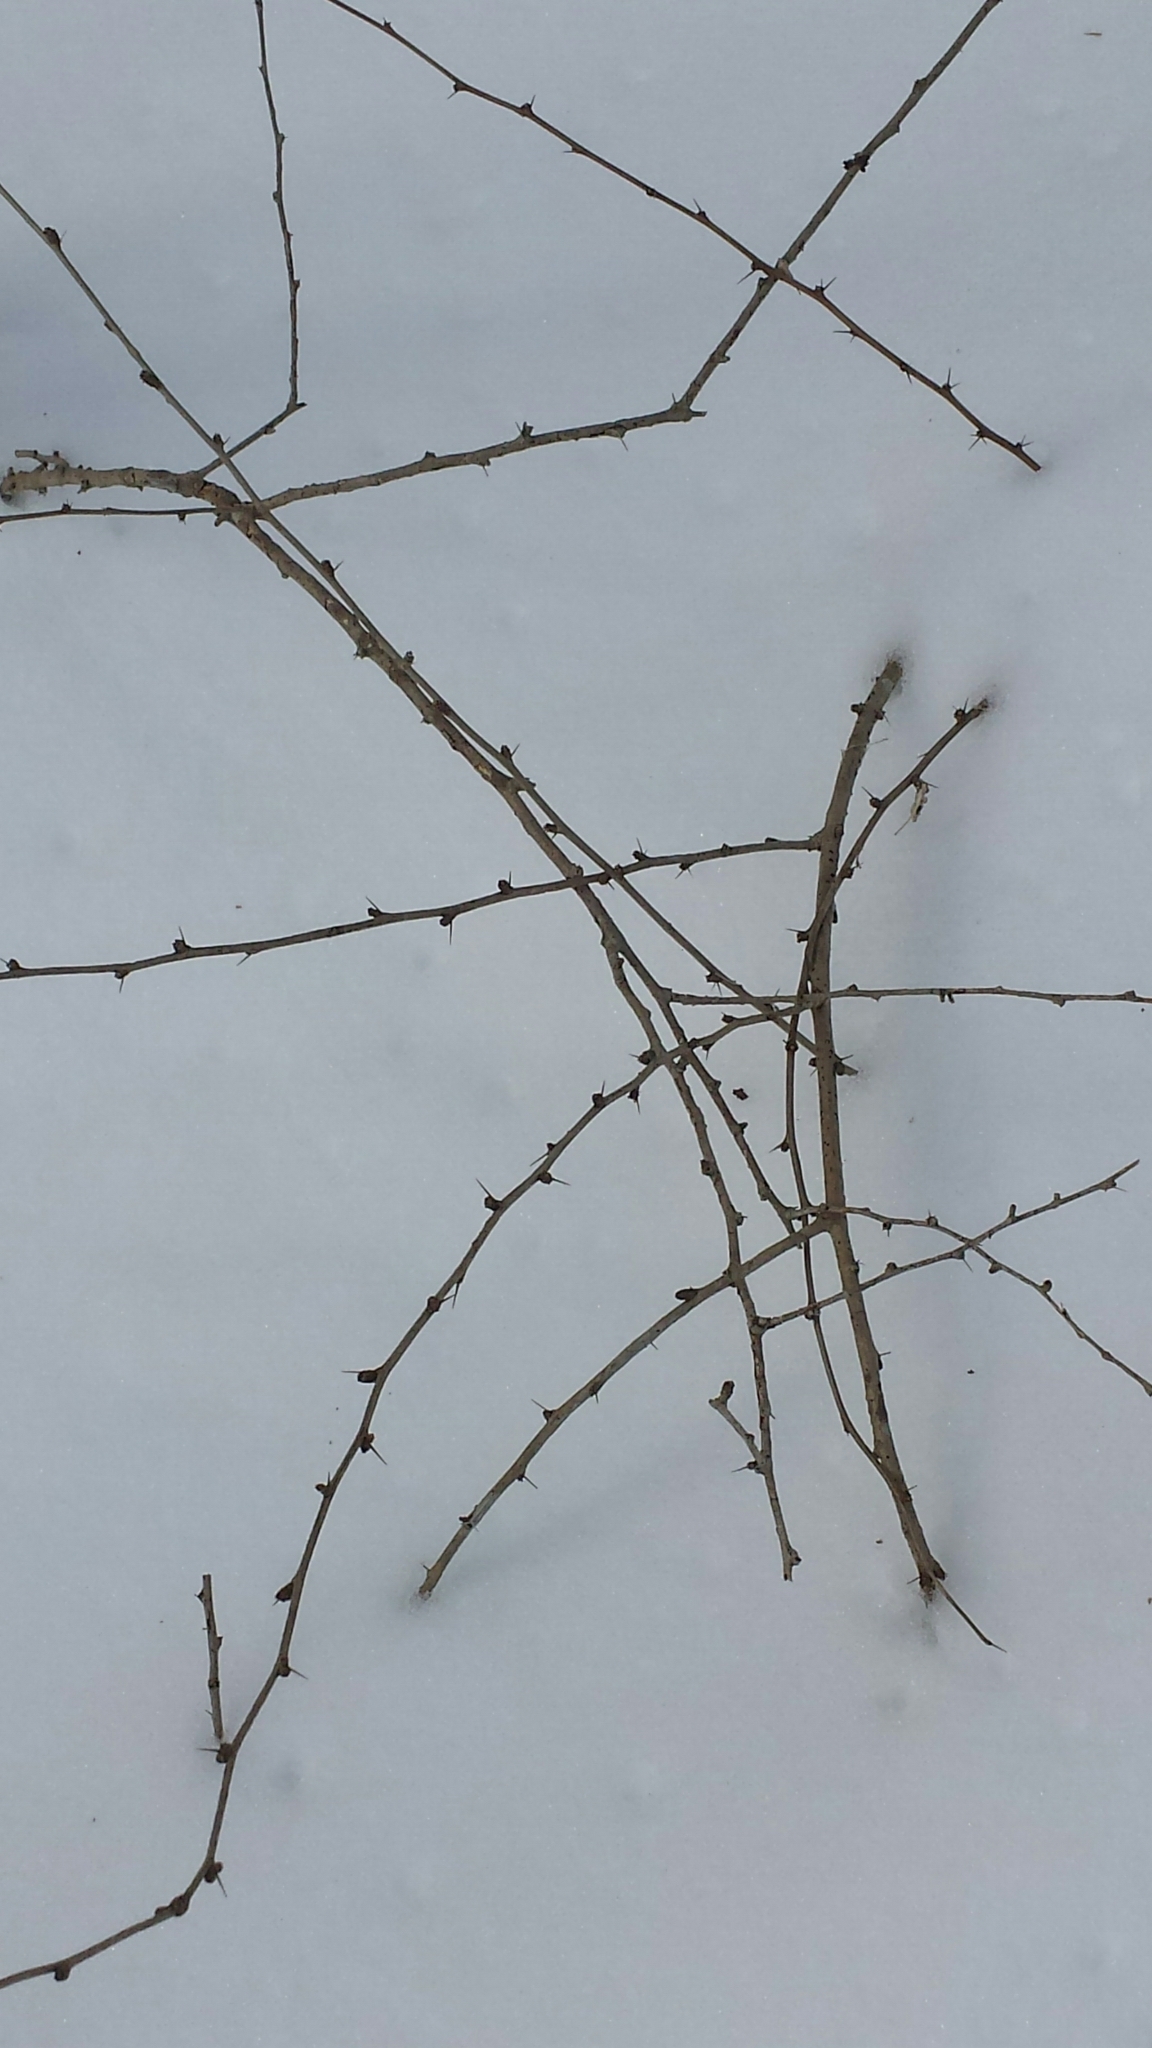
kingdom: Plantae
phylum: Tracheophyta
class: Magnoliopsida
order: Ranunculales
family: Berberidaceae
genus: Berberis
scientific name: Berberis thunbergii
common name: Japanese barberry
